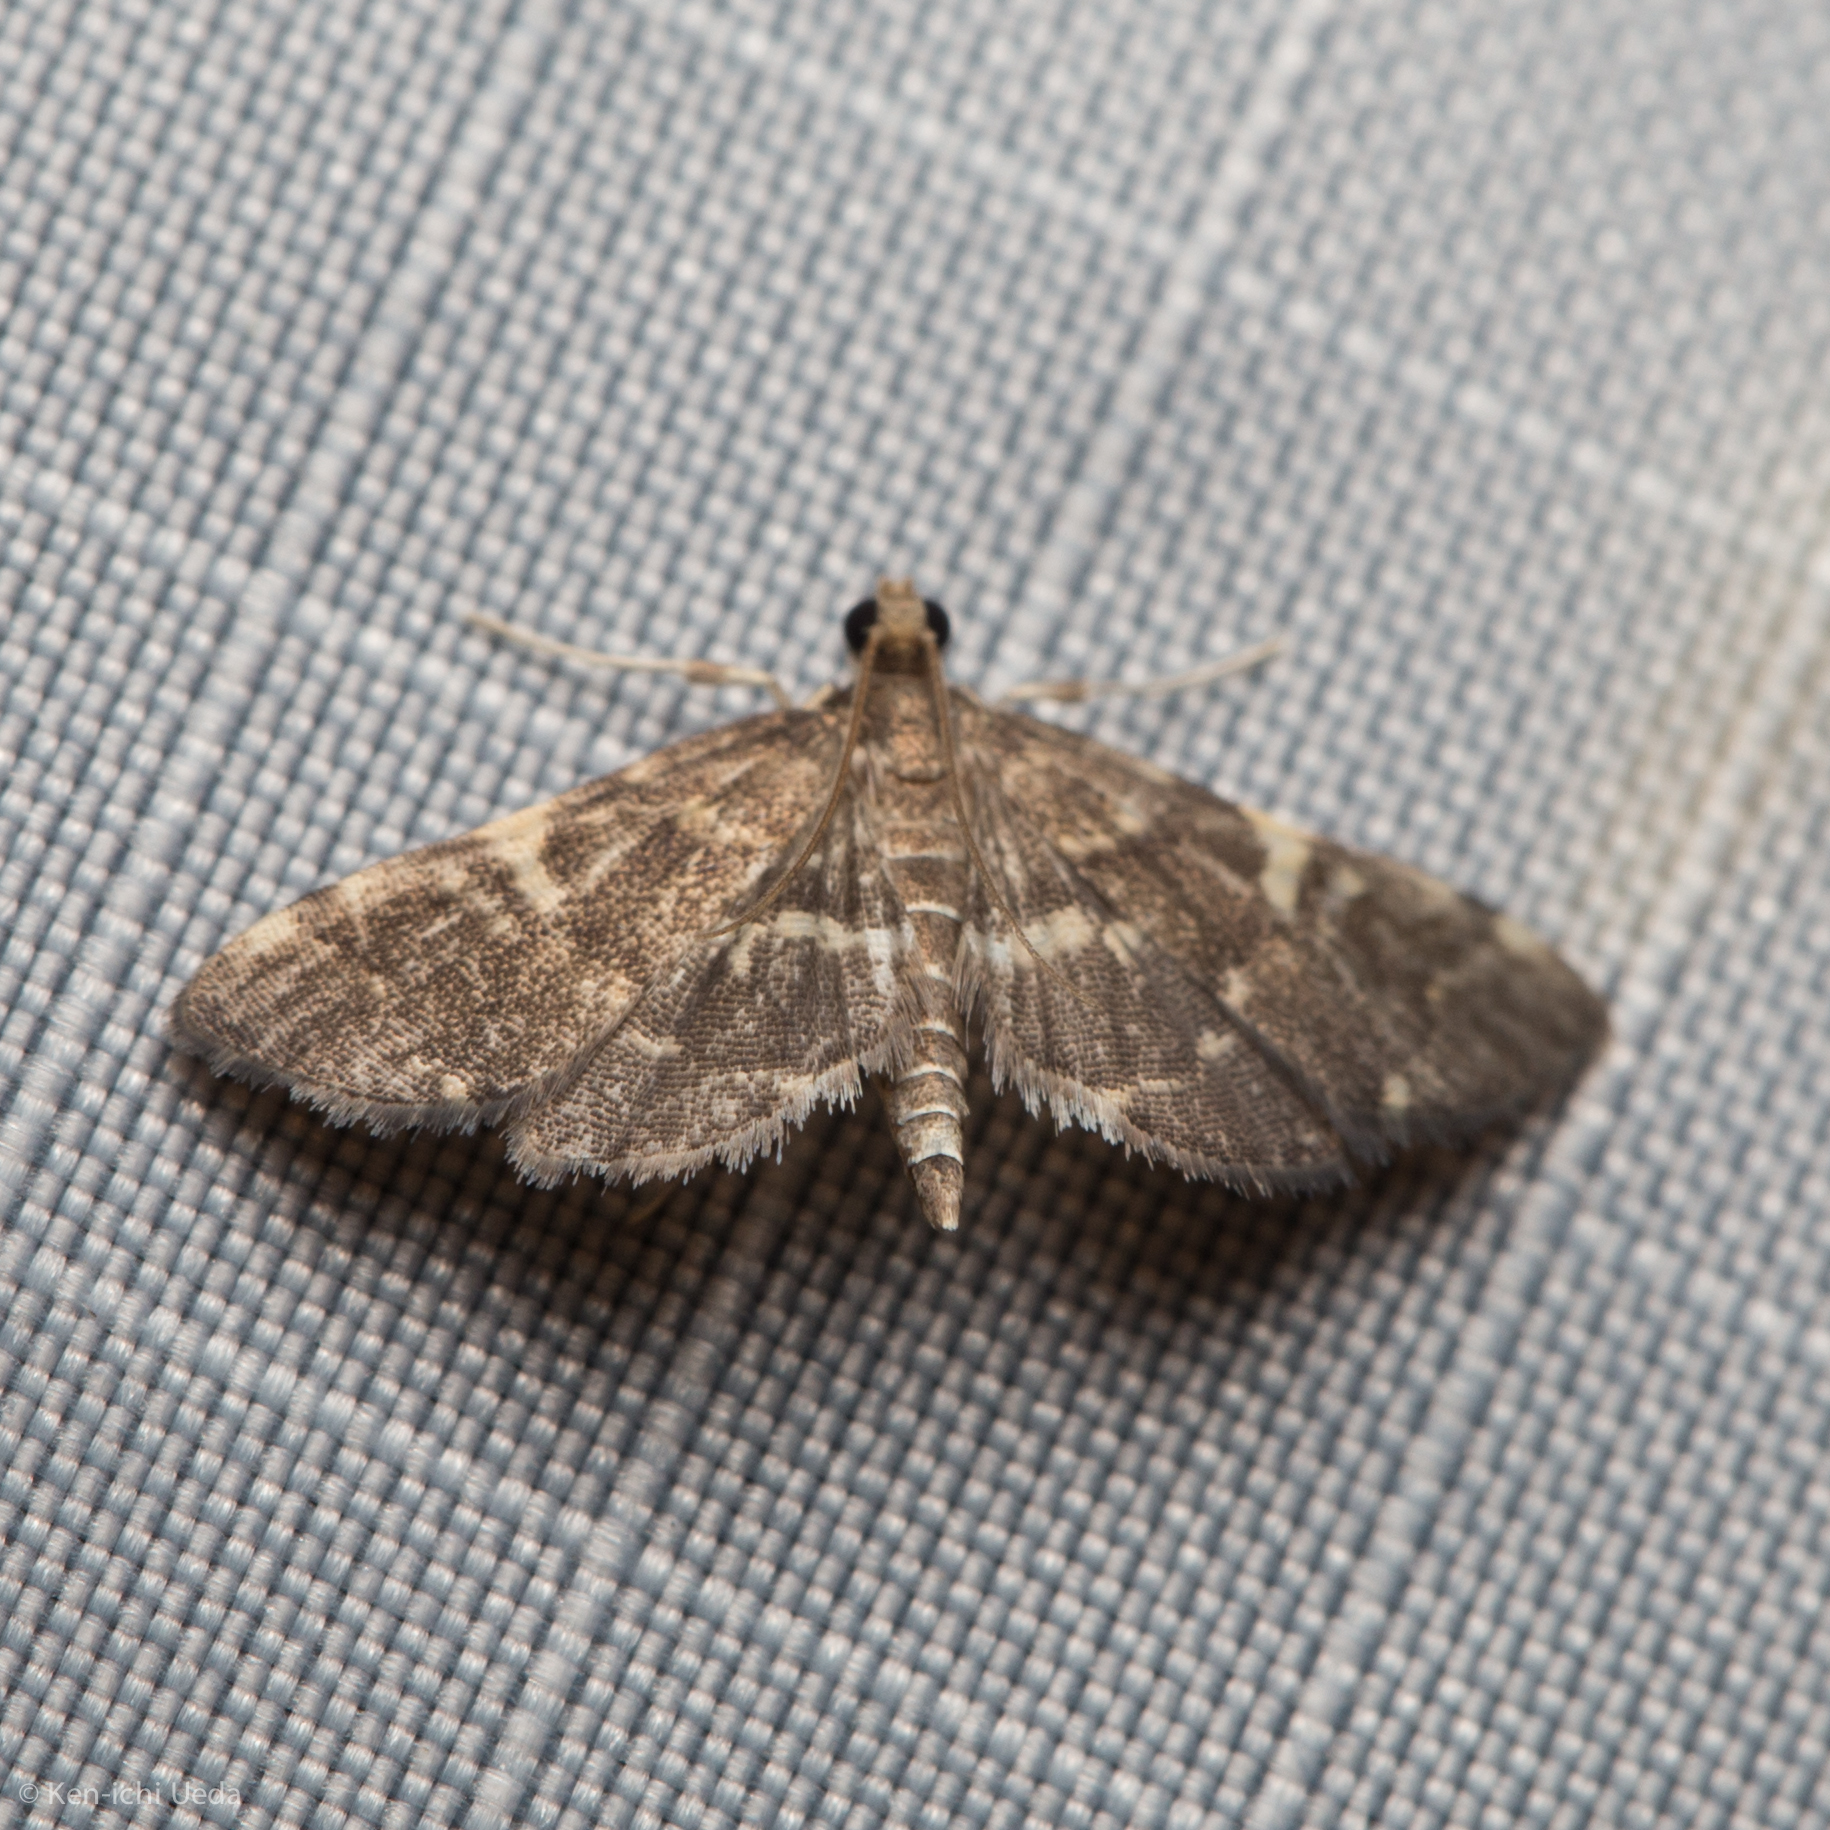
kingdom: Animalia
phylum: Arthropoda
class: Insecta
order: Lepidoptera
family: Crambidae
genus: Anageshna
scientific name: Anageshna primordialis
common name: Yellow-spotted webworm moth
